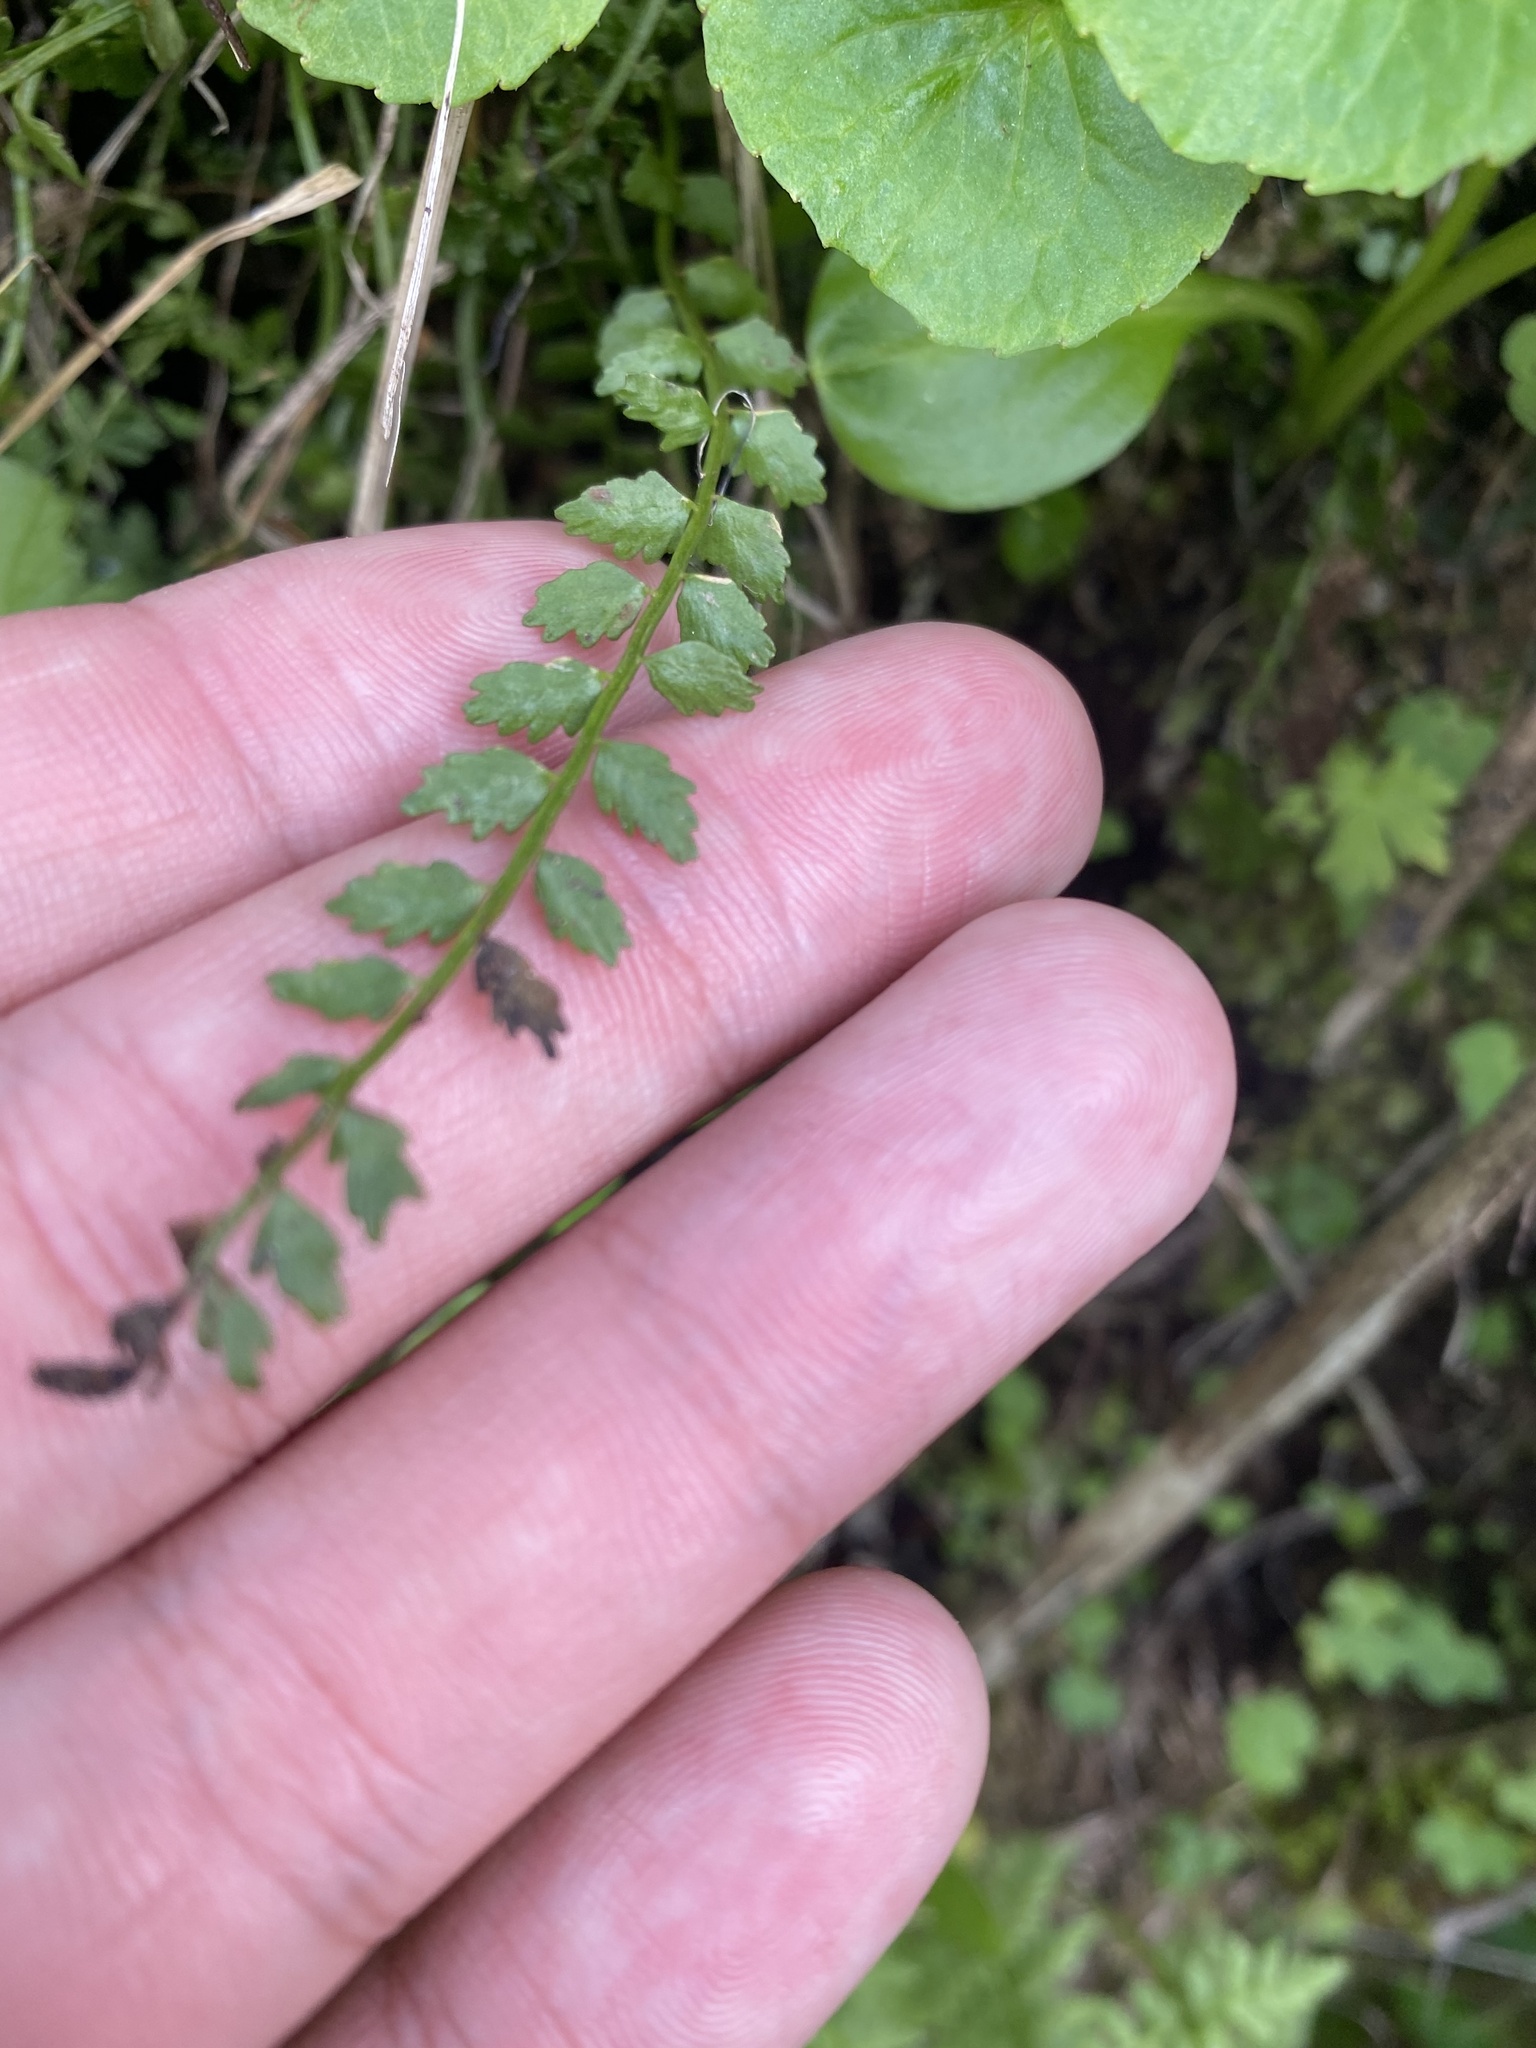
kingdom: Plantae
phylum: Tracheophyta
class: Polypodiopsida
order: Polypodiales
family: Aspleniaceae
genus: Asplenium
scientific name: Asplenium viride
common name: Green spleenwort
